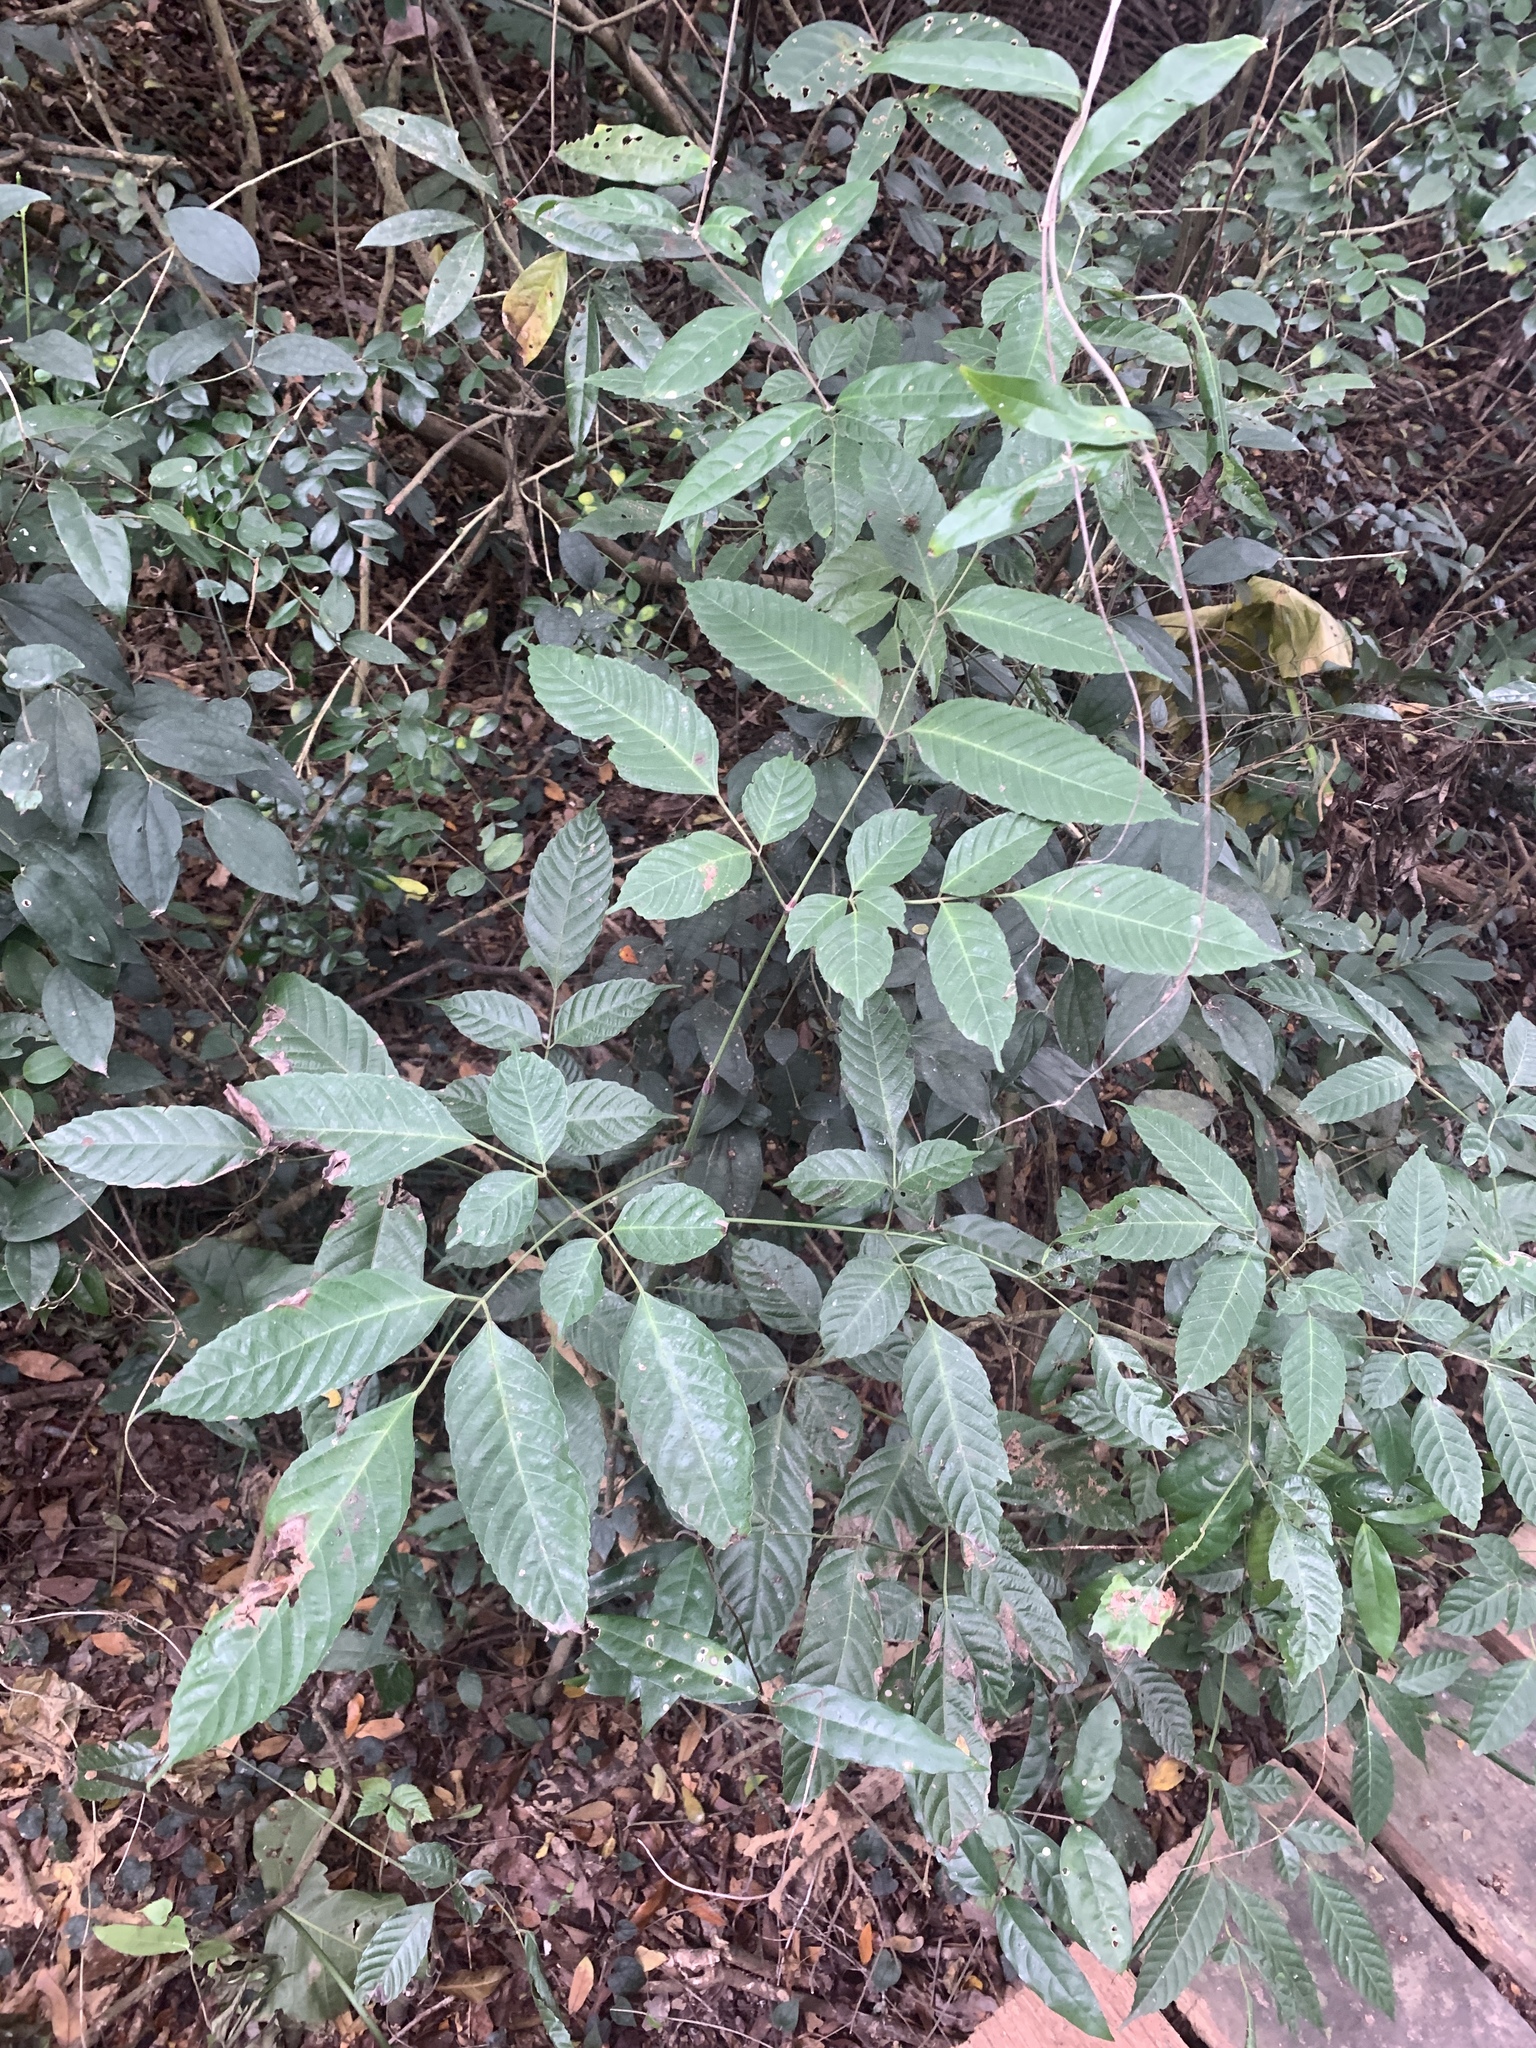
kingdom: Plantae
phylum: Tracheophyta
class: Magnoliopsida
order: Vitales
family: Vitaceae
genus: Leea
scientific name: Leea guineensis
